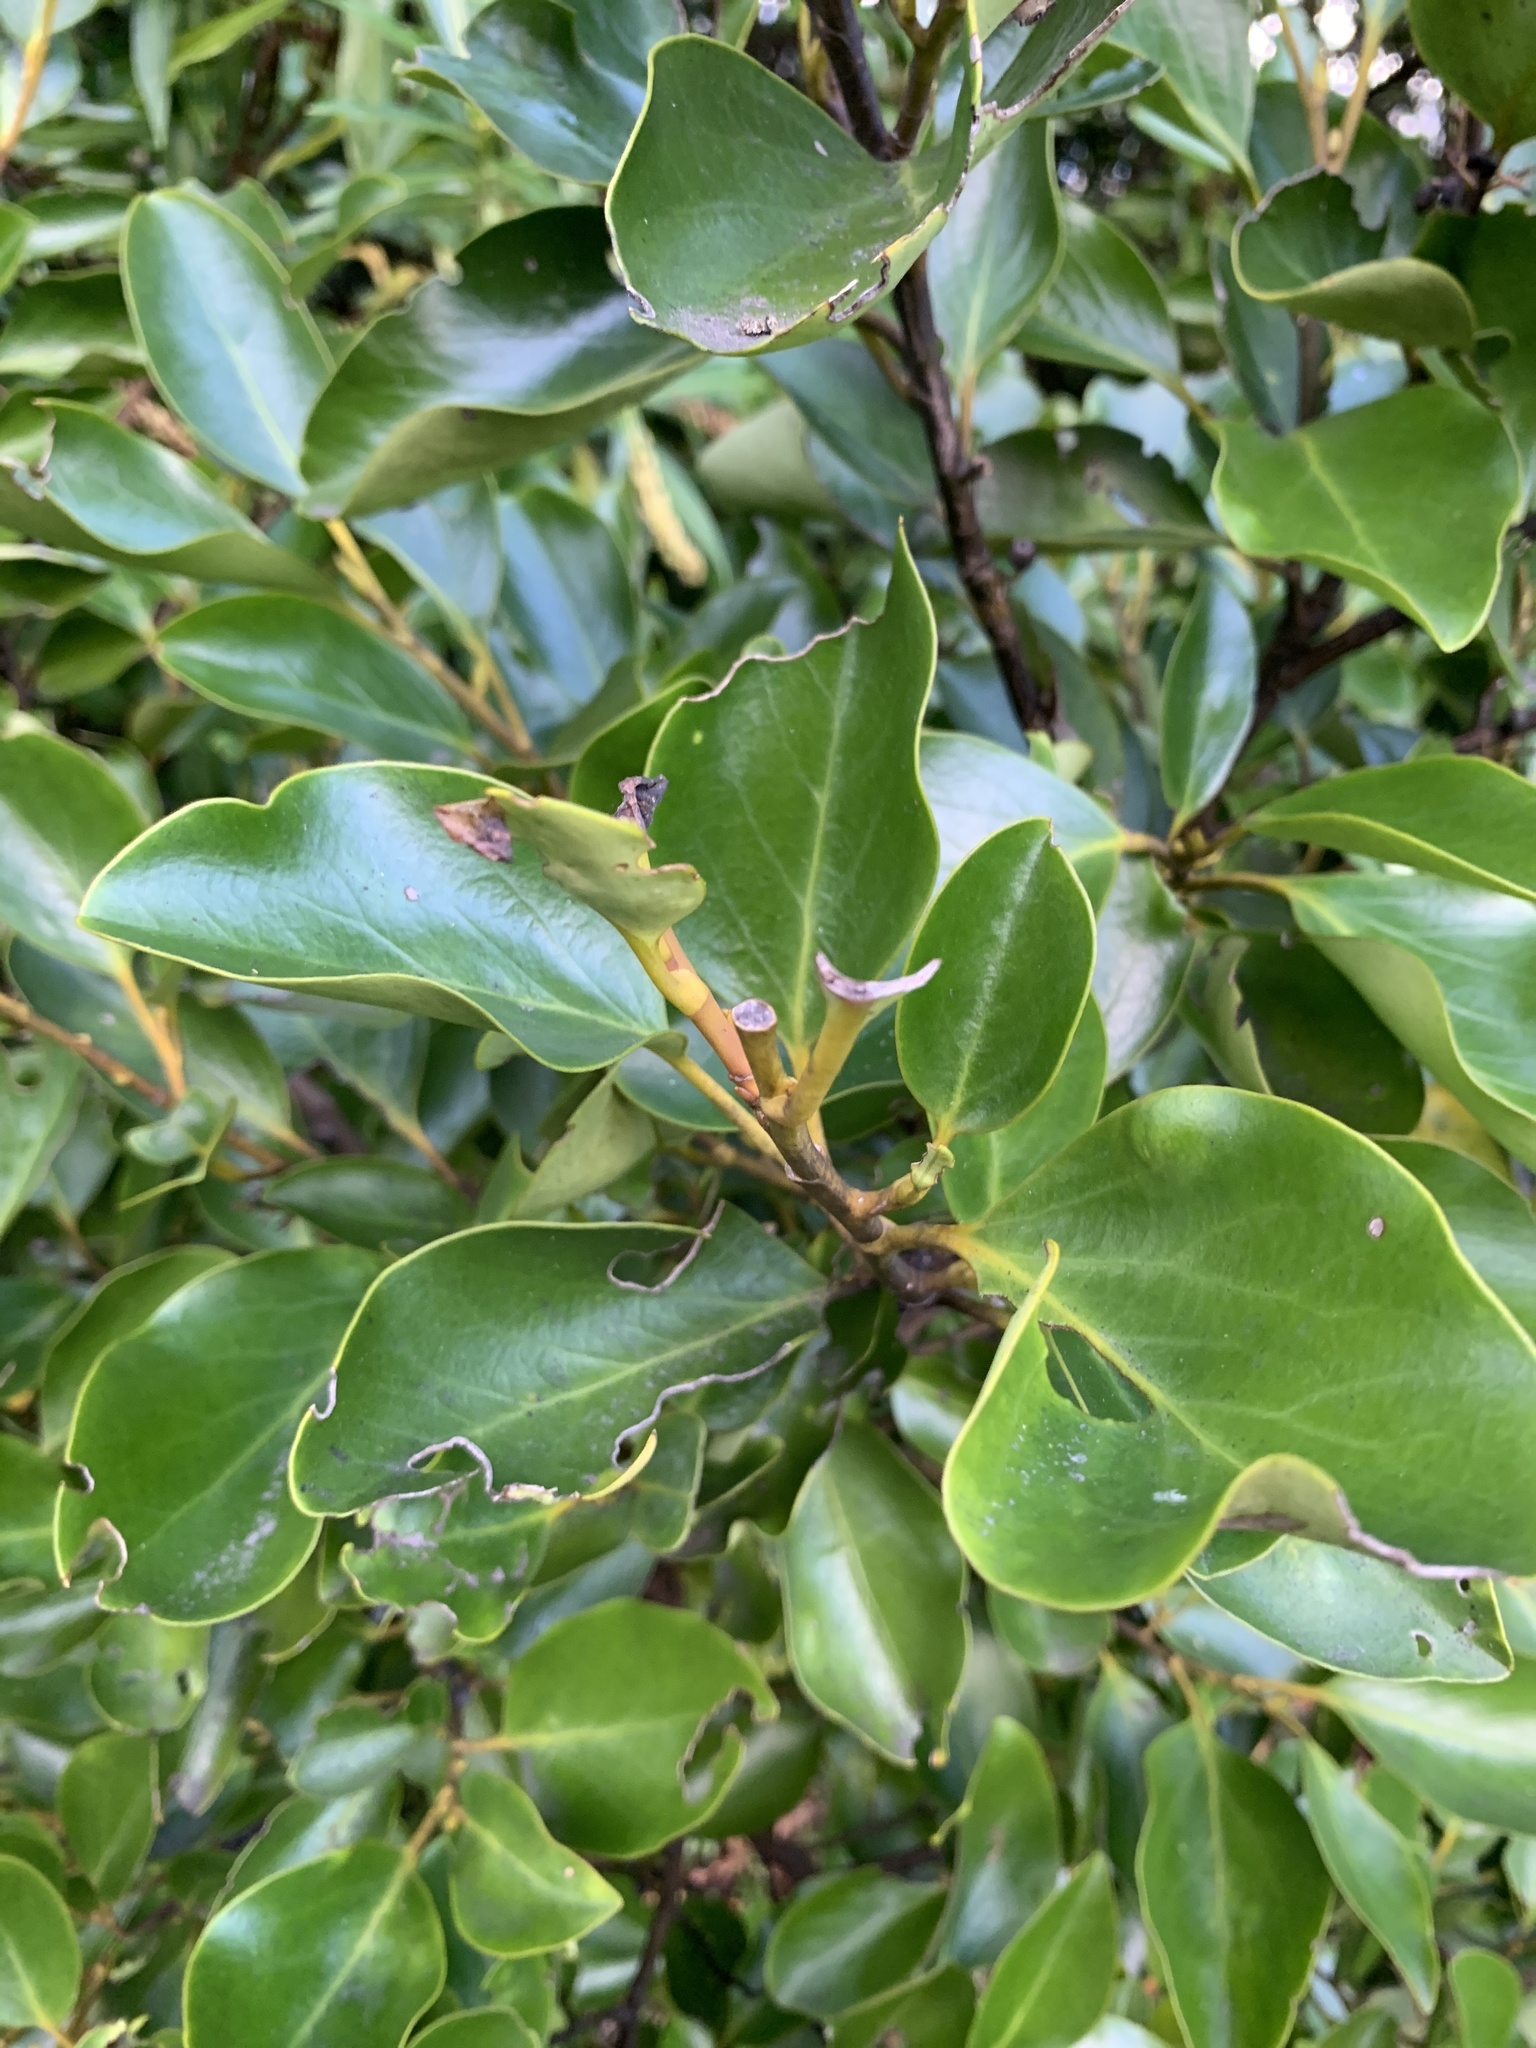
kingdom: Plantae
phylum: Tracheophyta
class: Magnoliopsida
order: Apiales
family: Griseliniaceae
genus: Griselinia
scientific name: Griselinia littoralis
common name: New zealand broadleaf
